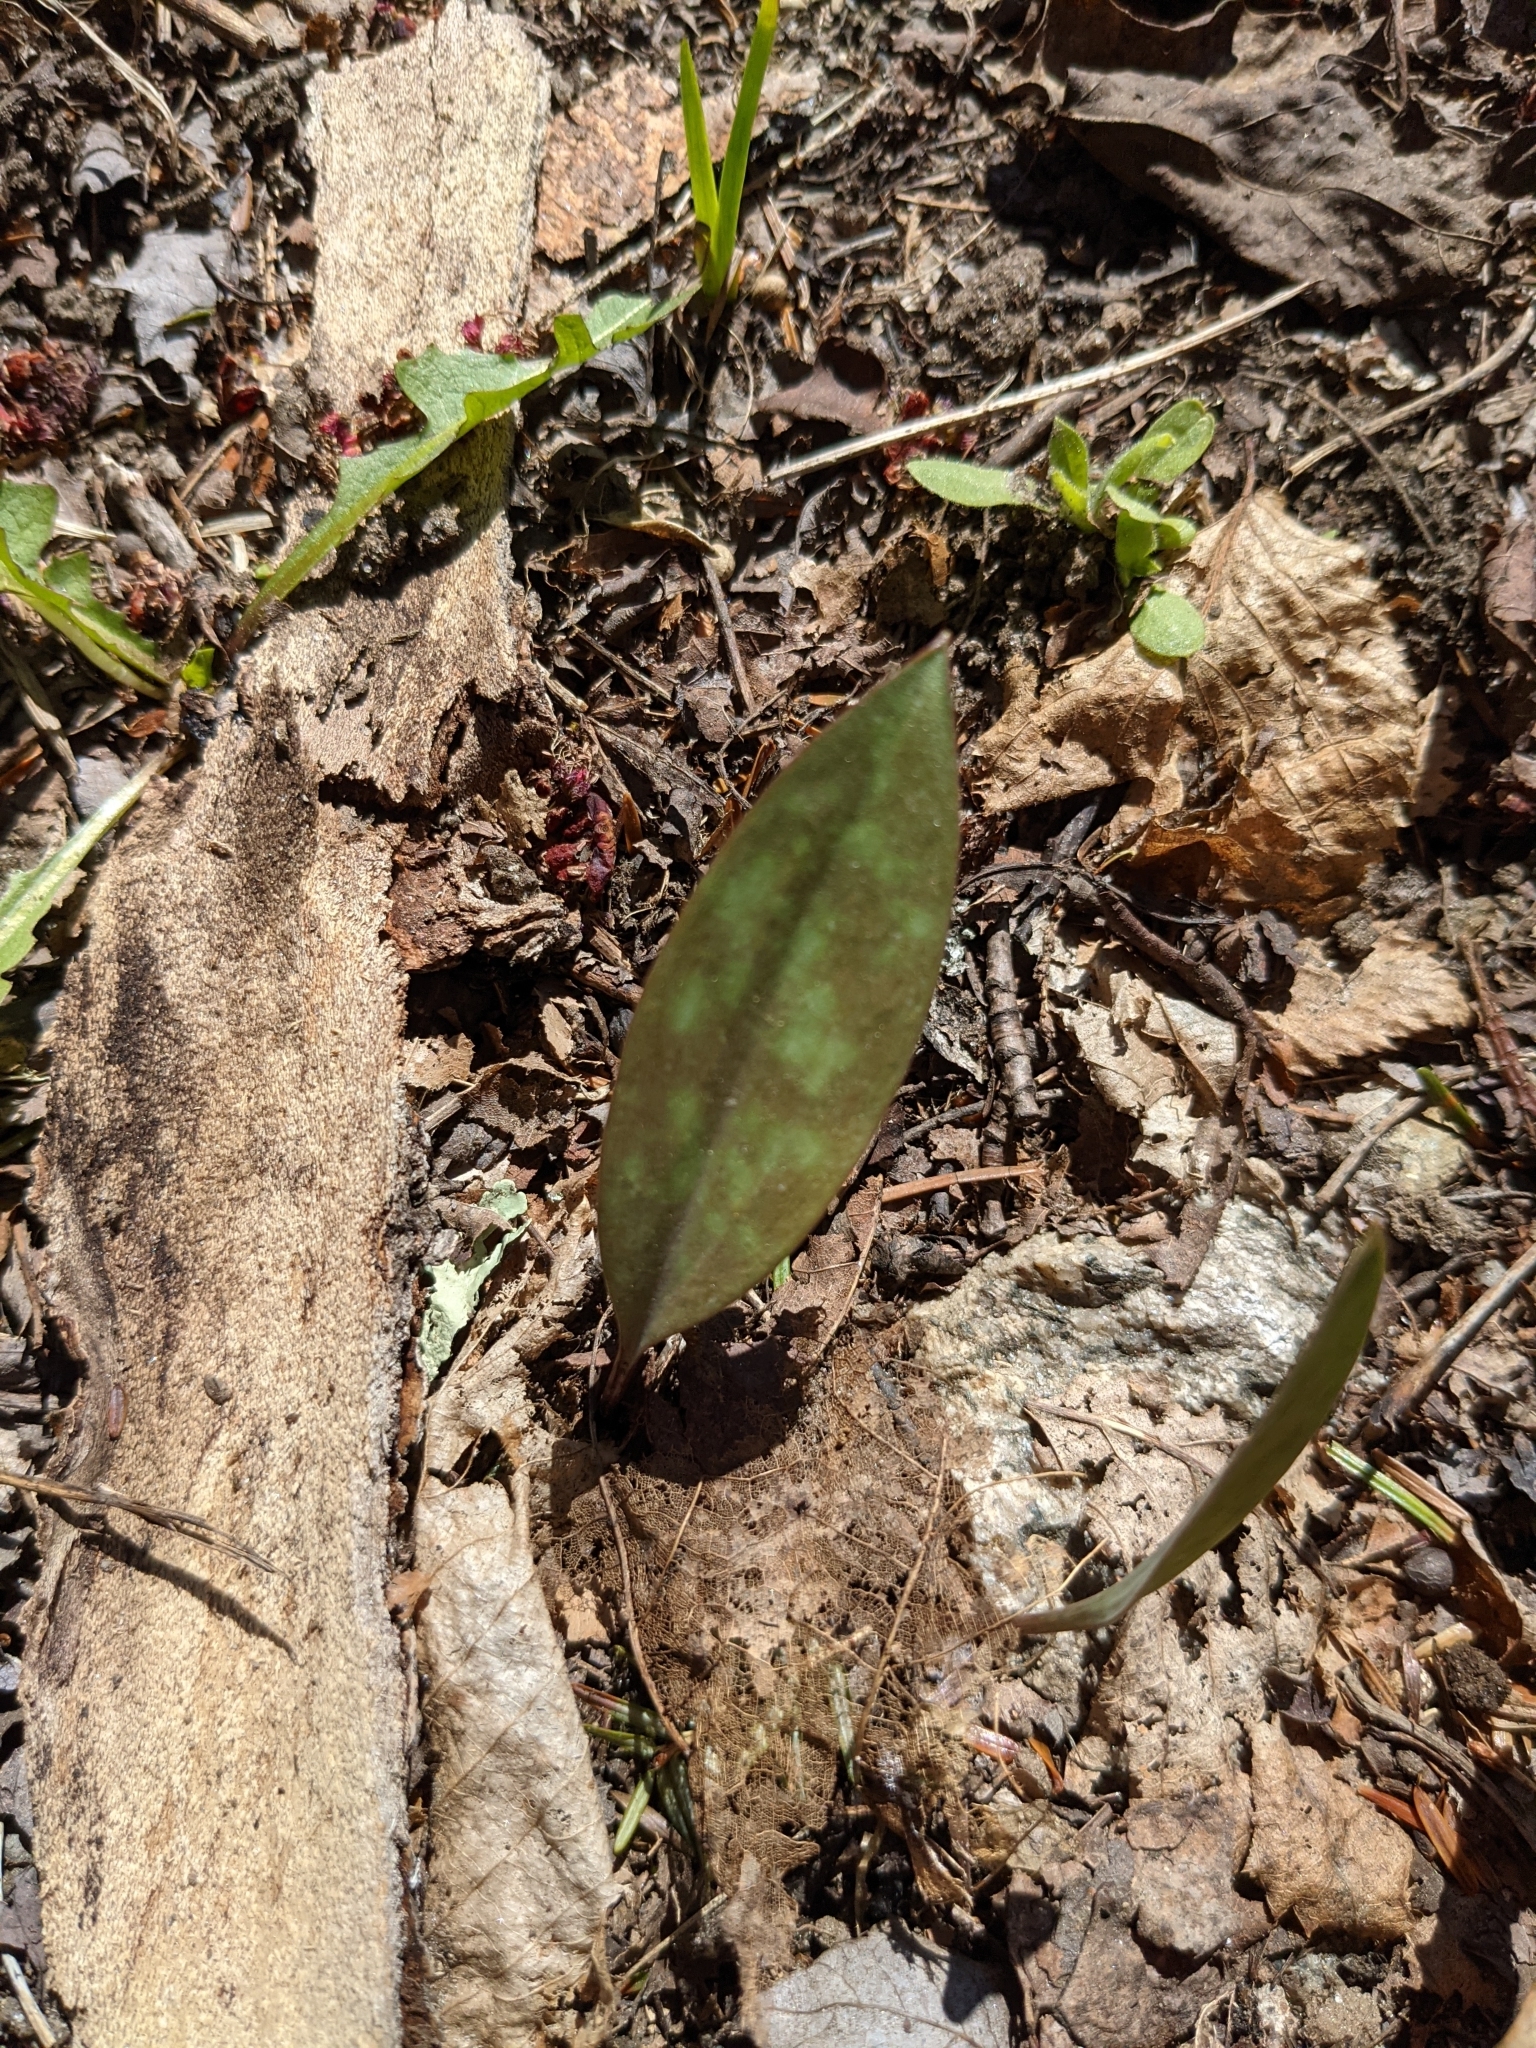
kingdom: Plantae
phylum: Tracheophyta
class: Liliopsida
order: Liliales
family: Liliaceae
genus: Erythronium
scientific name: Erythronium americanum
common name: Yellow adder's-tongue
